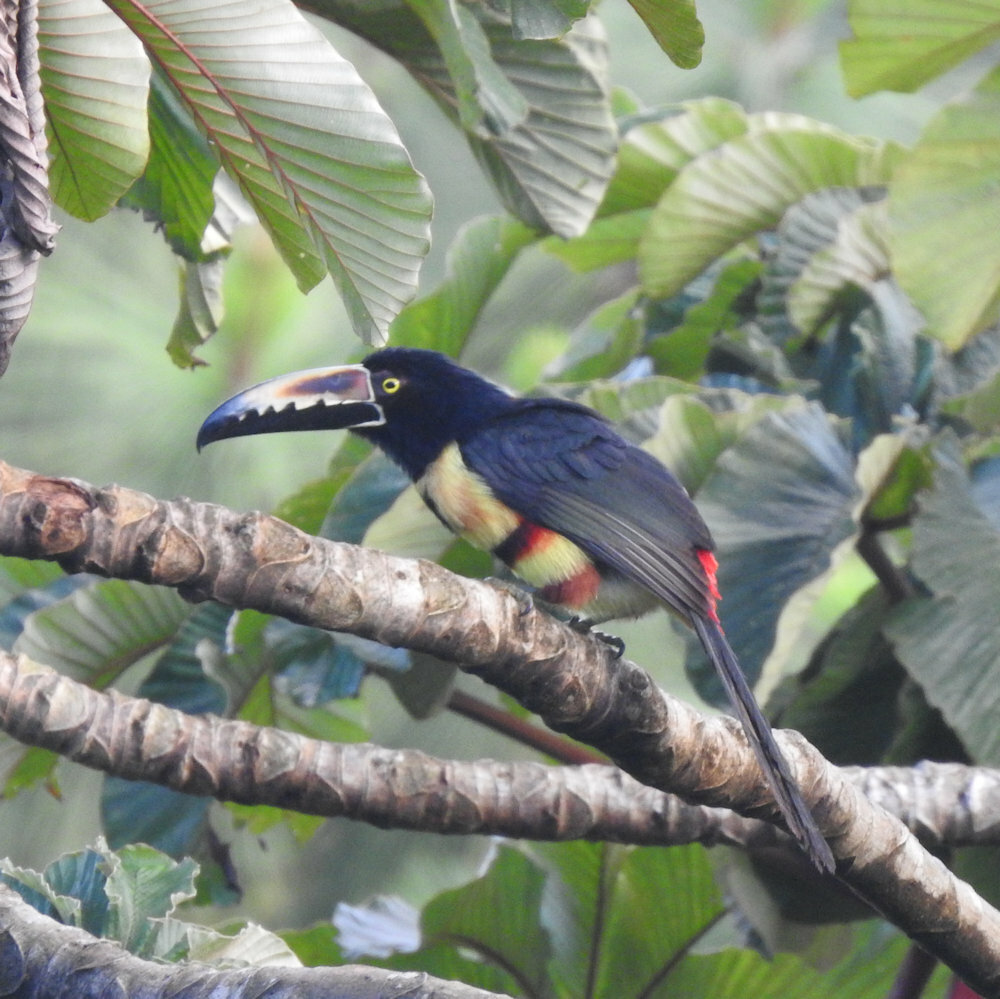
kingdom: Animalia
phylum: Chordata
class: Aves
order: Piciformes
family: Ramphastidae
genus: Pteroglossus
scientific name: Pteroglossus torquatus
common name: Collared aracari
